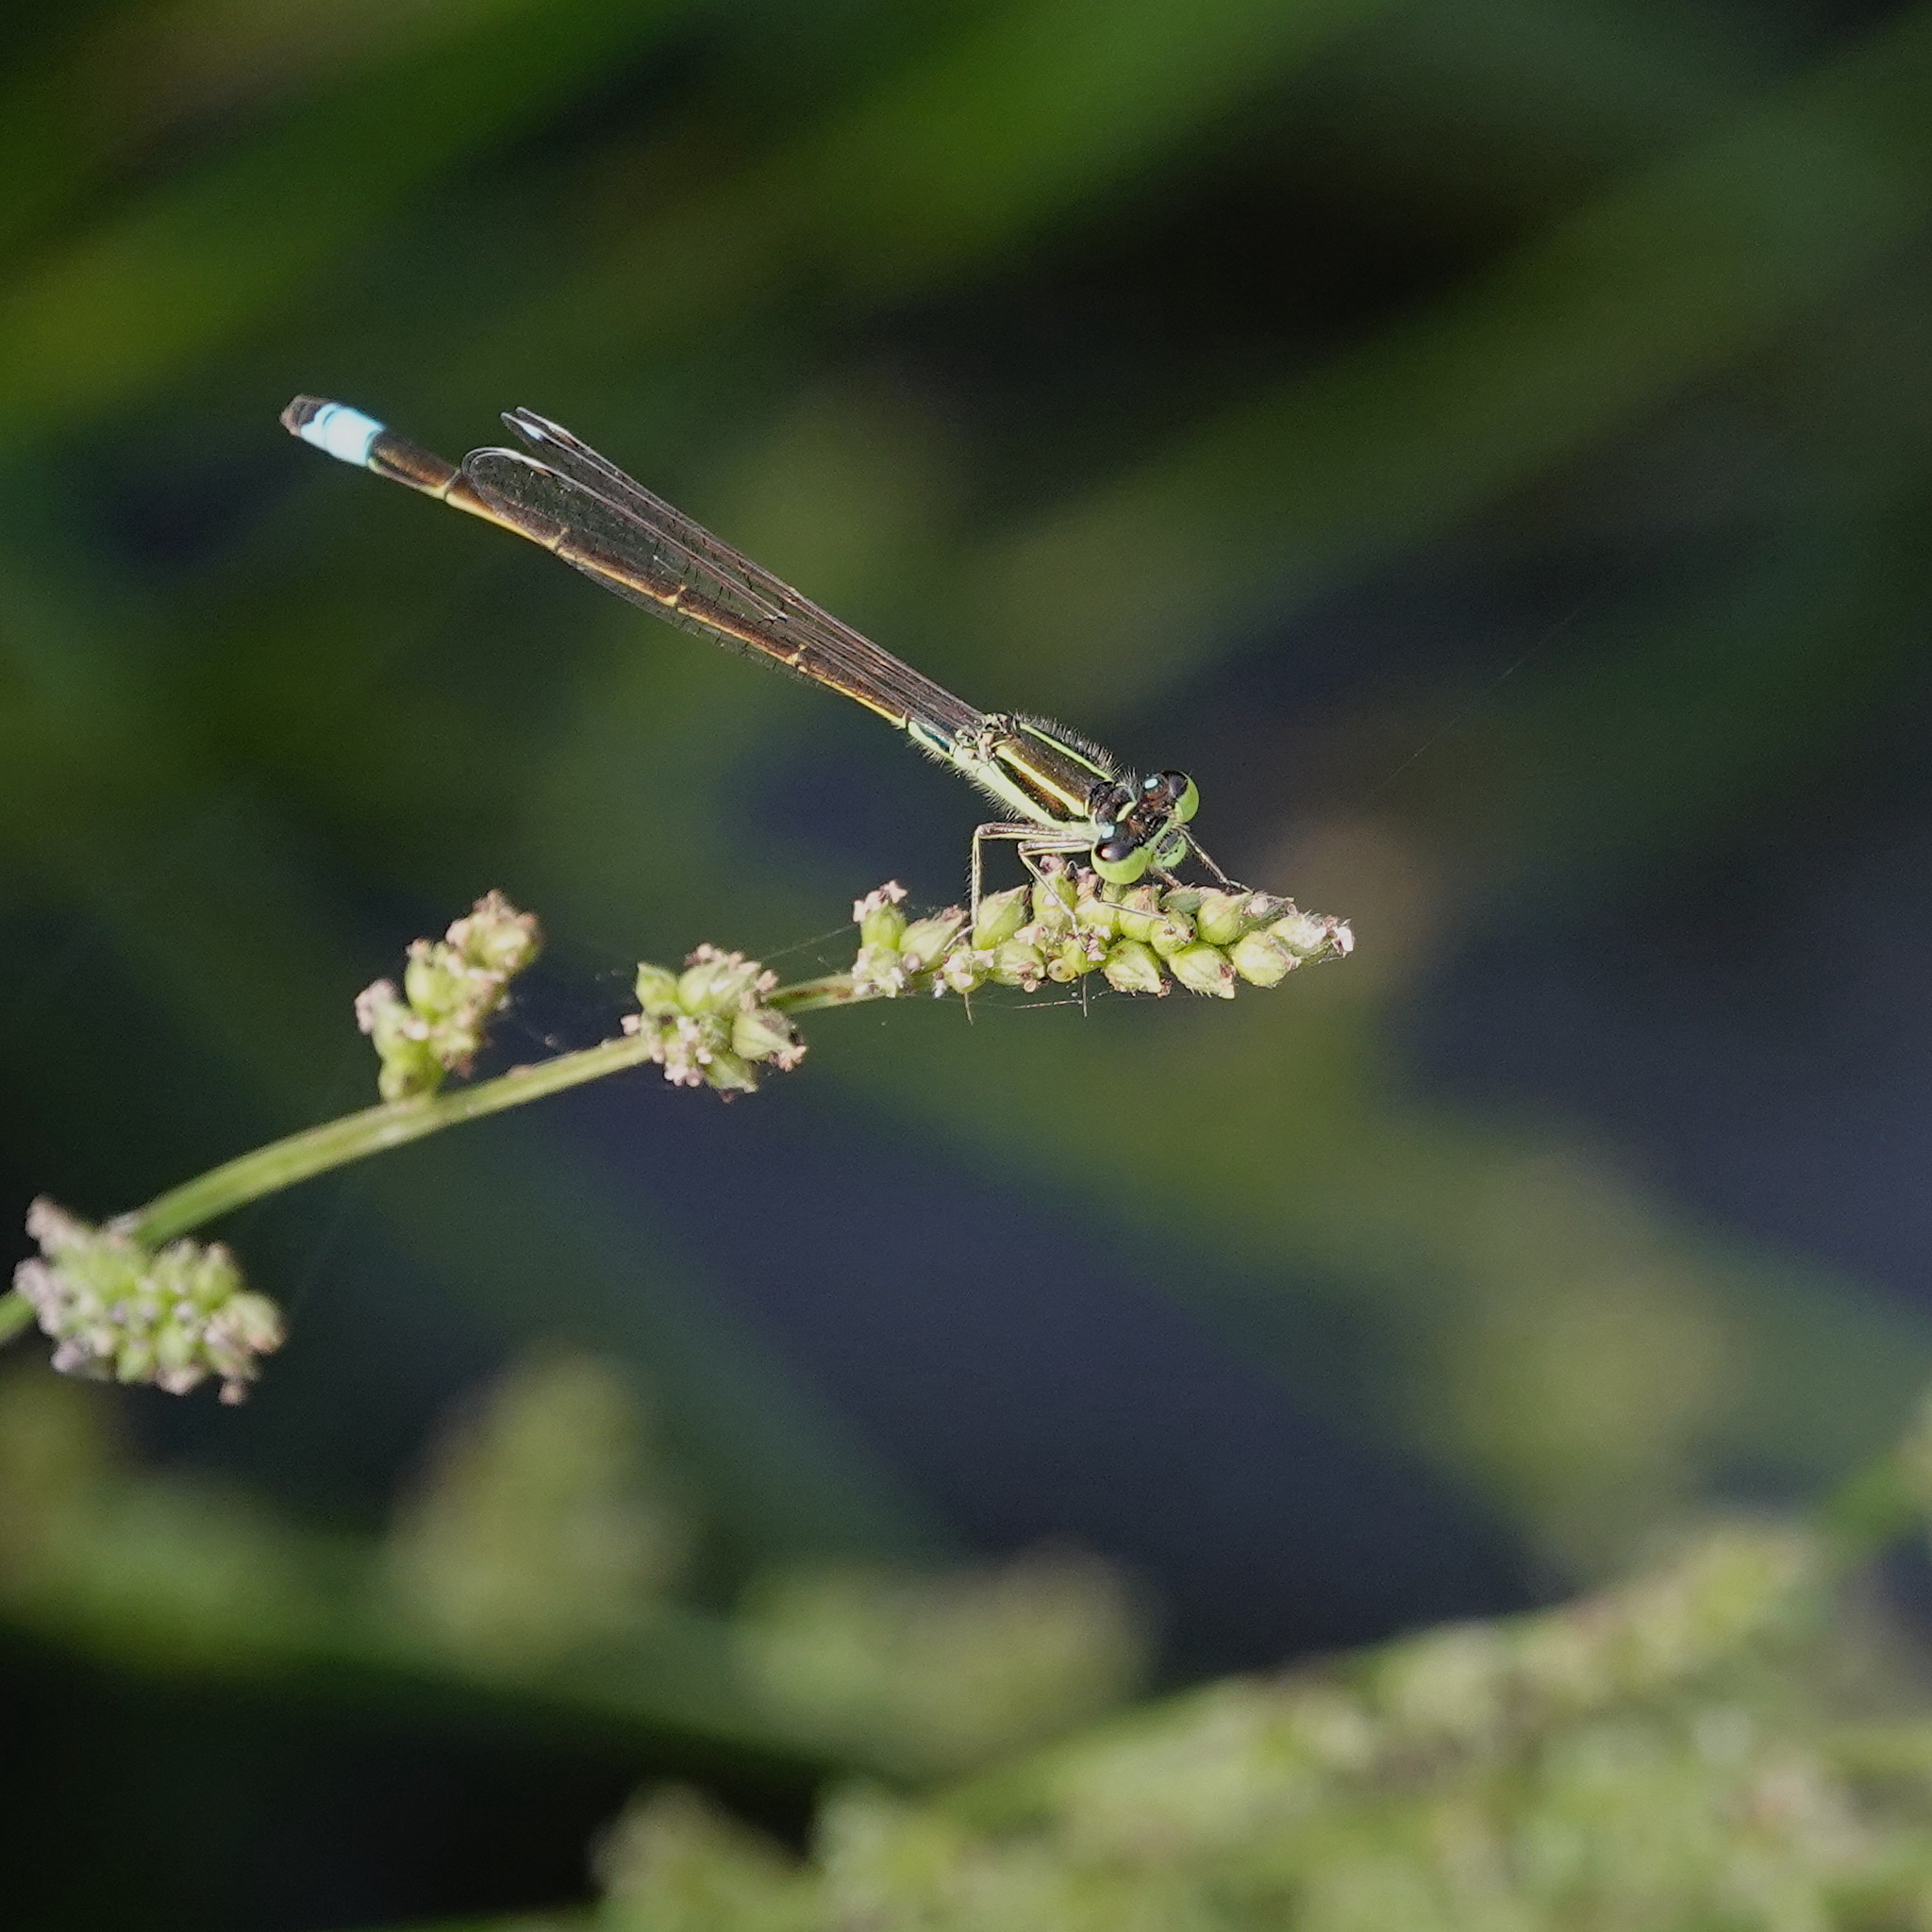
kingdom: Animalia
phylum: Arthropoda
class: Insecta
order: Odonata
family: Coenagrionidae
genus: Ischnura
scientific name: Ischnura senegalensis
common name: Tropical bluetail
